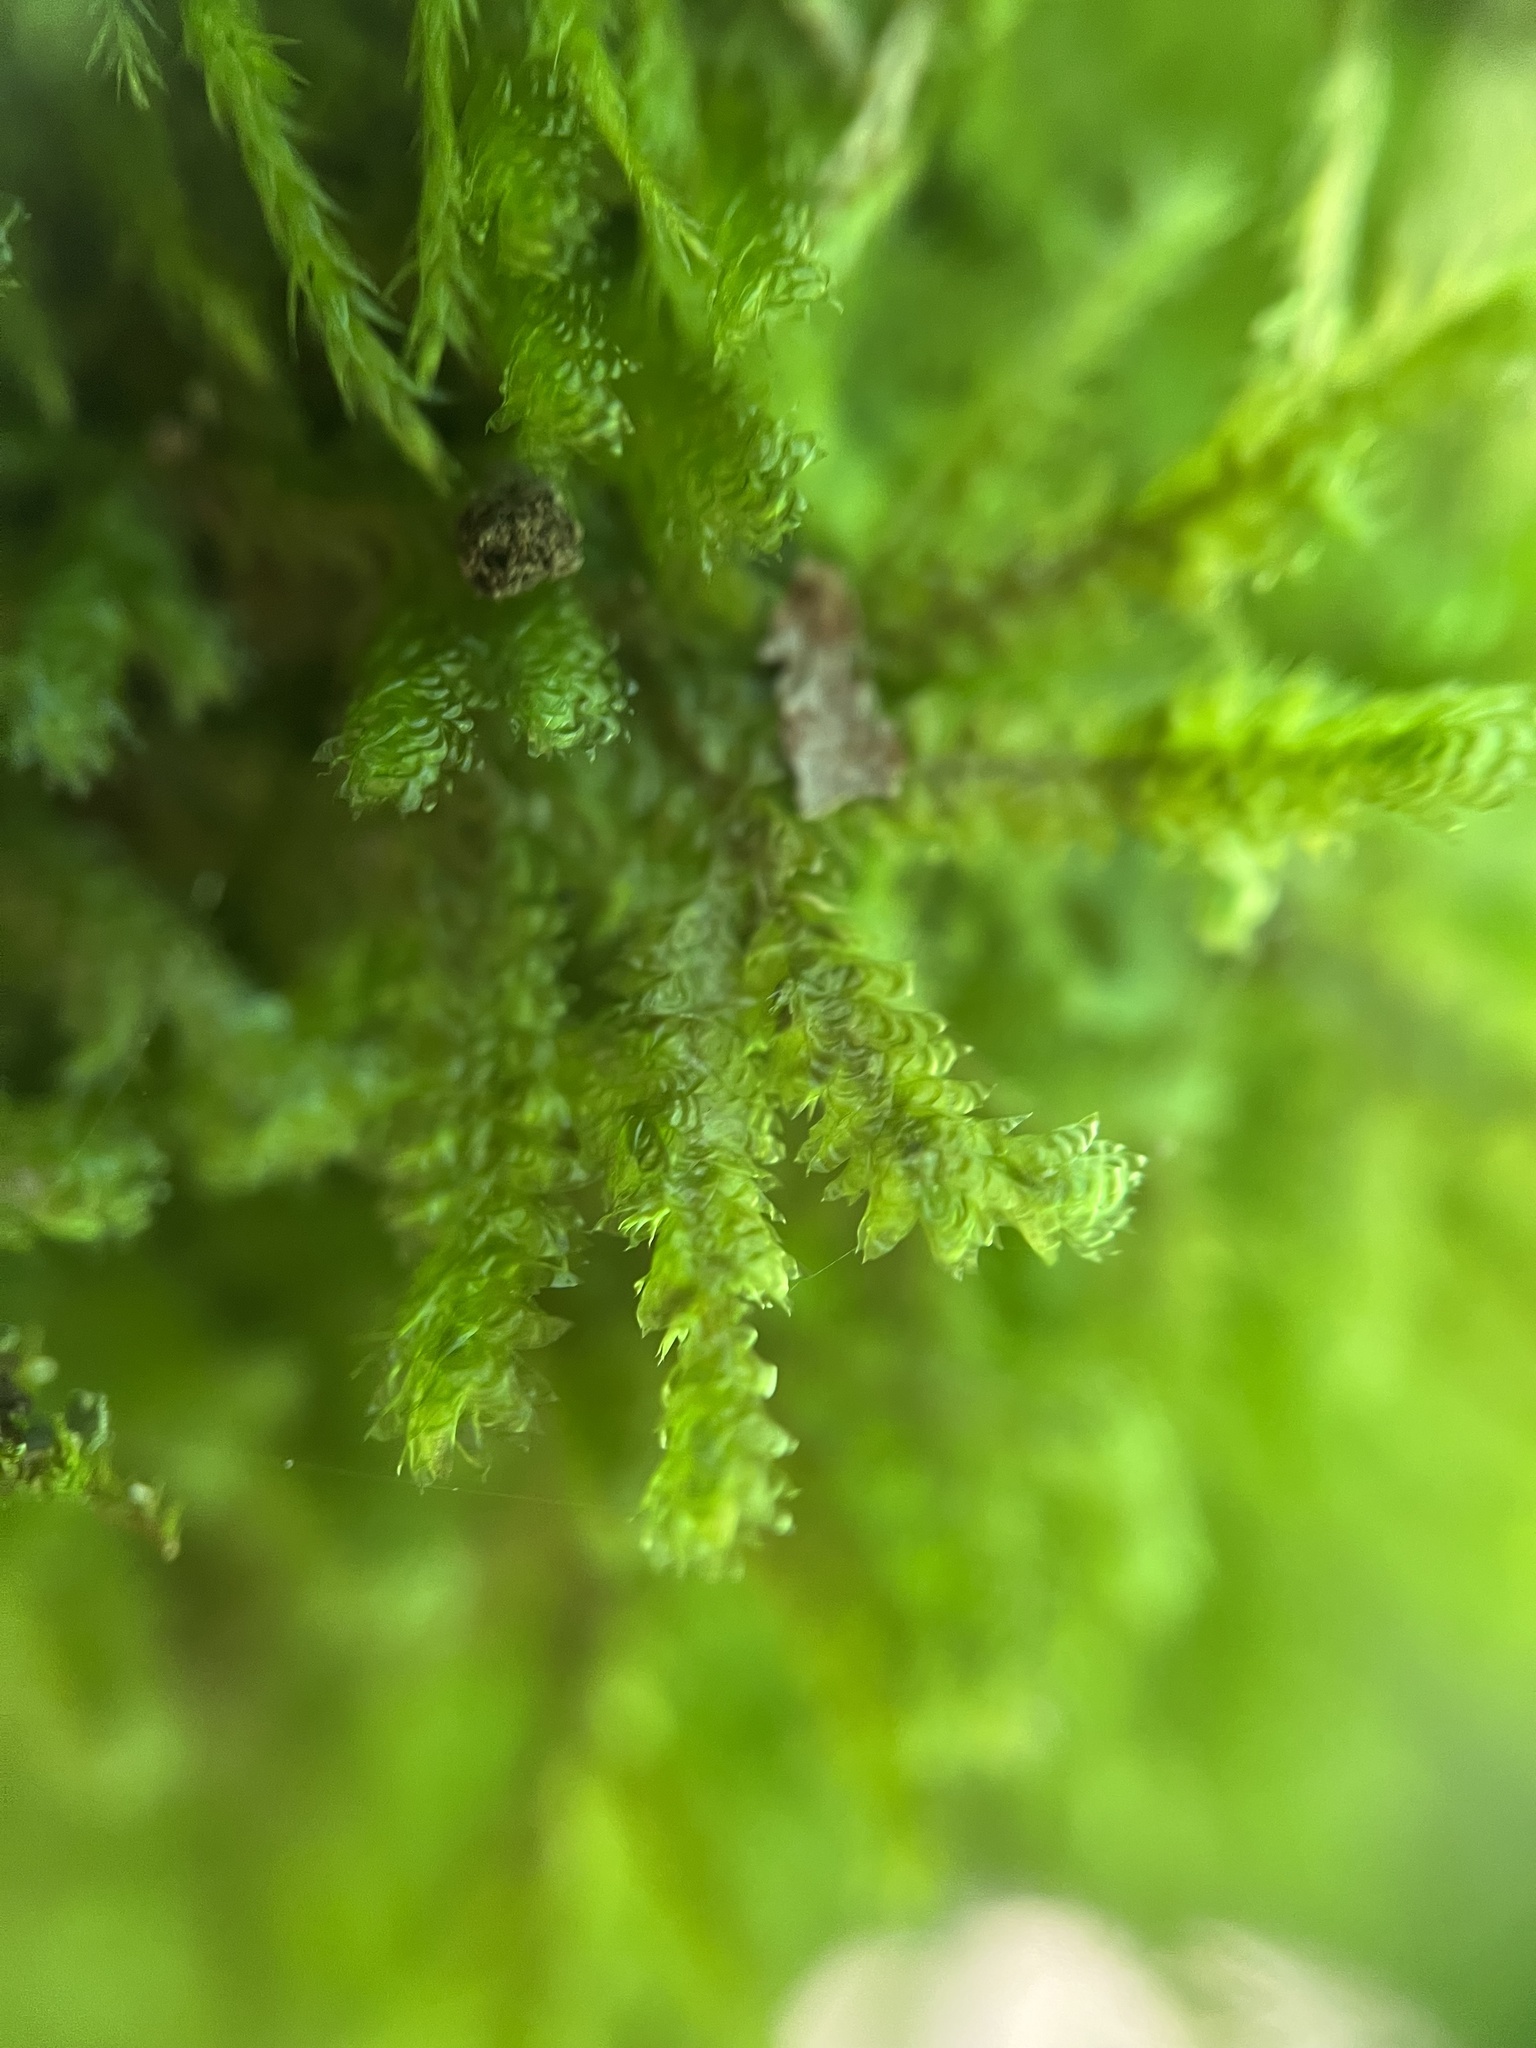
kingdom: Plantae
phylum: Bryophyta
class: Bryopsida
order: Hypnales
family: Neckeraceae
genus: Neckera
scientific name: Neckera pennata
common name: Feathery neckera
